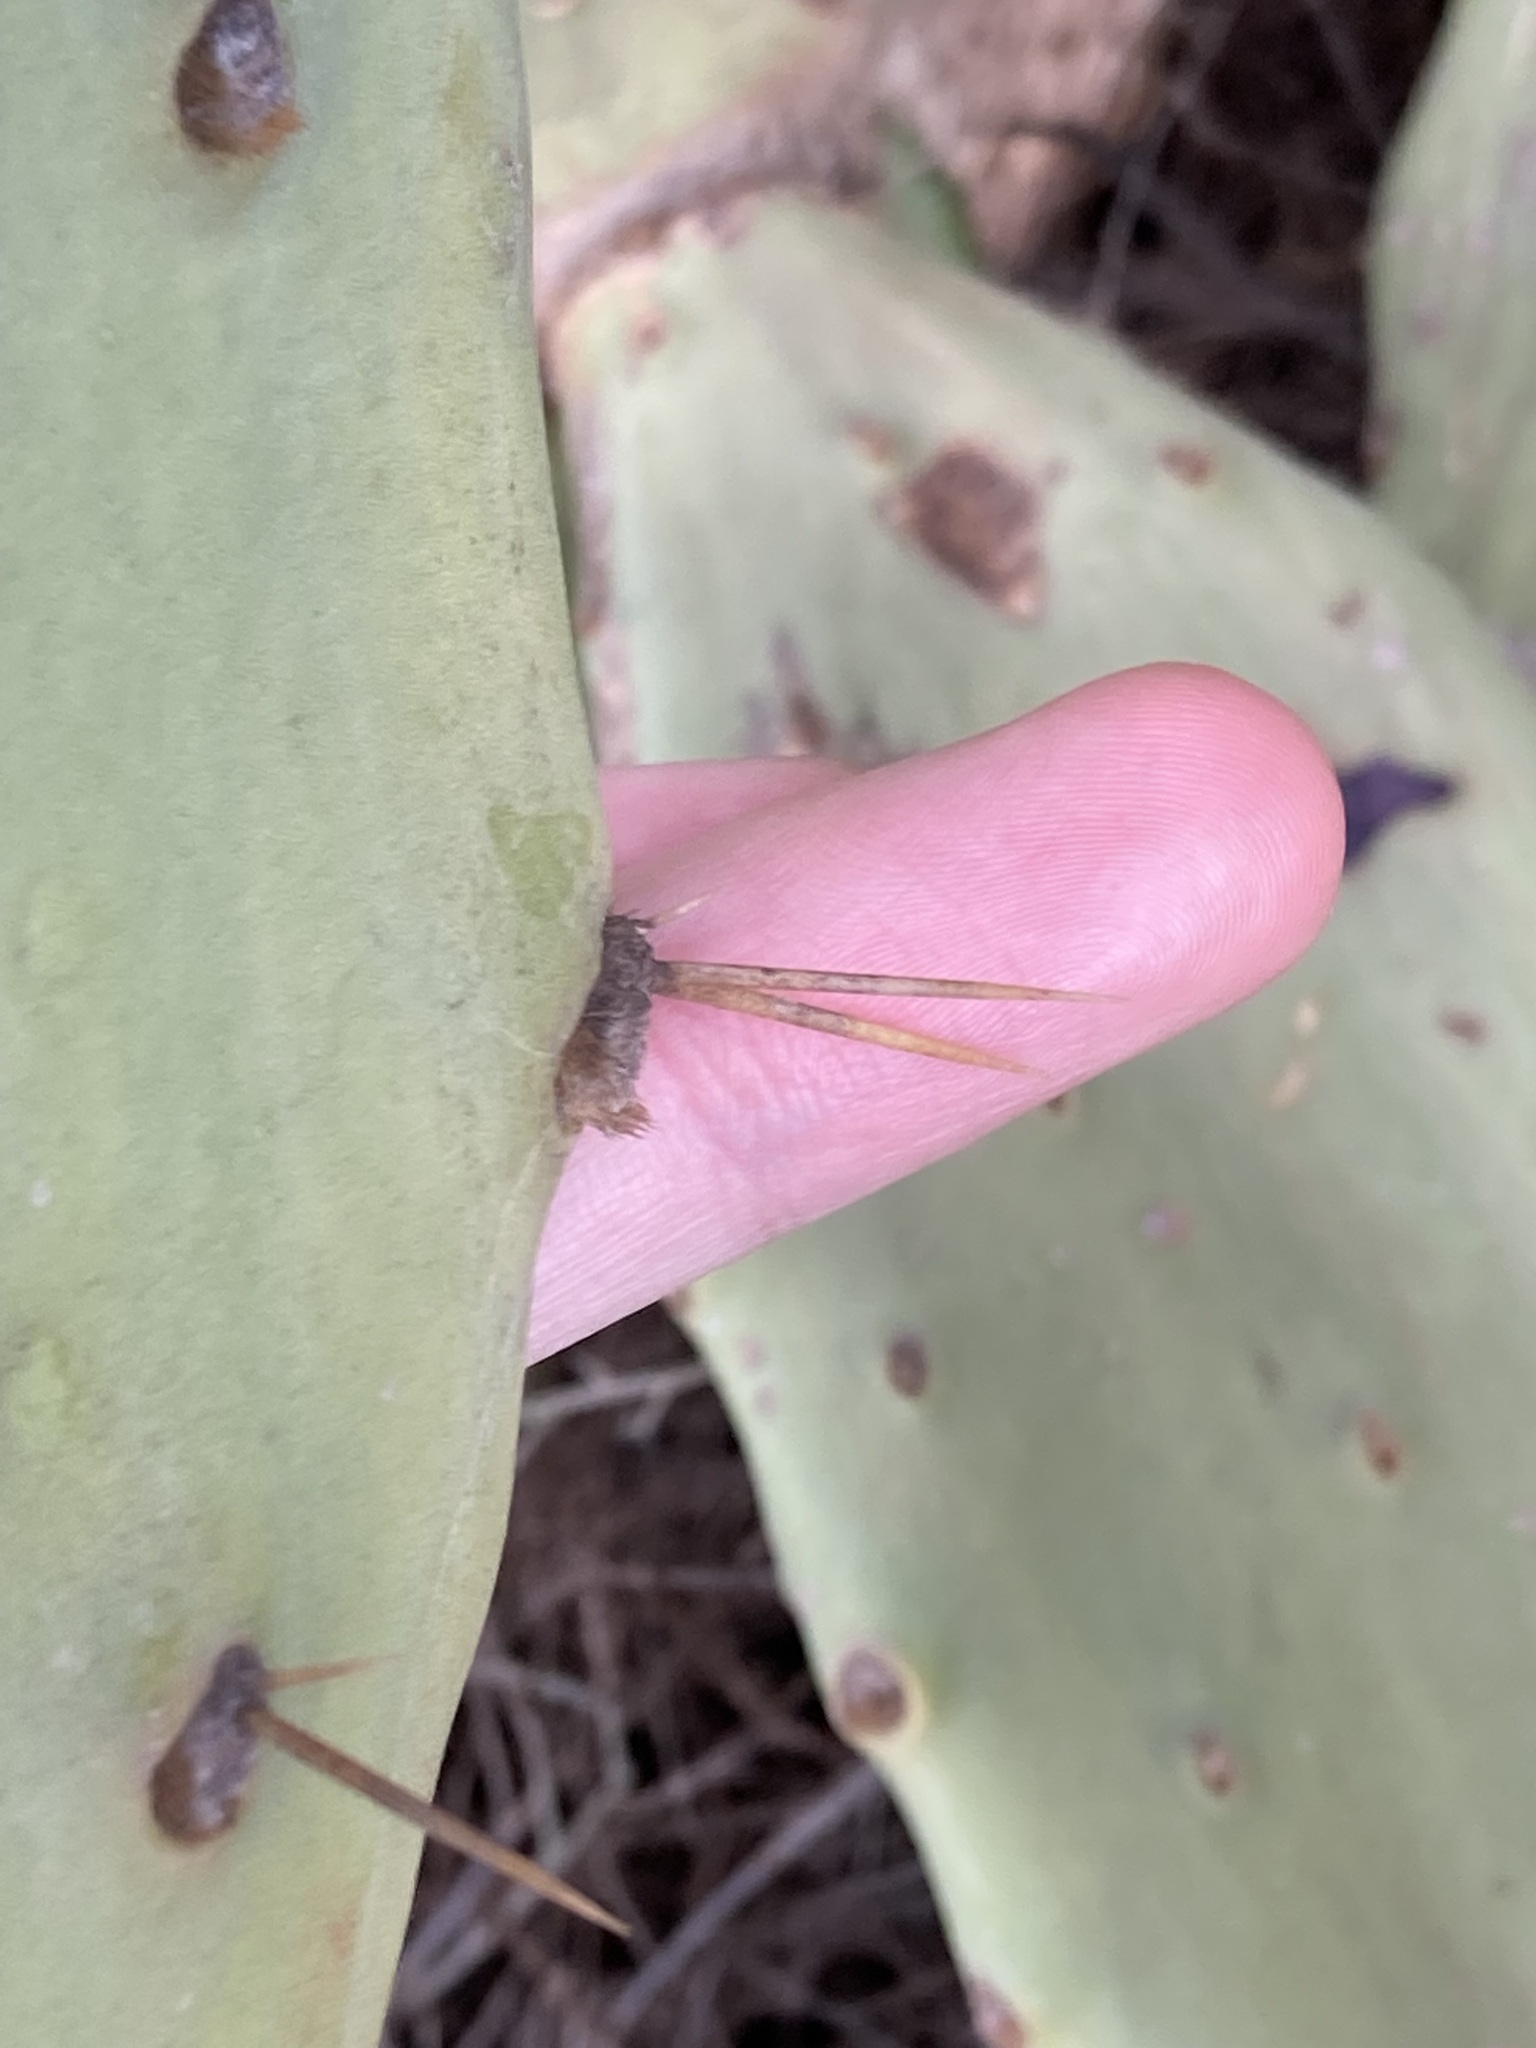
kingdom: Plantae
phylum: Tracheophyta
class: Magnoliopsida
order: Caryophyllales
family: Cactaceae
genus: Opuntia
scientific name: Opuntia stricta
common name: Erect pricklypear
